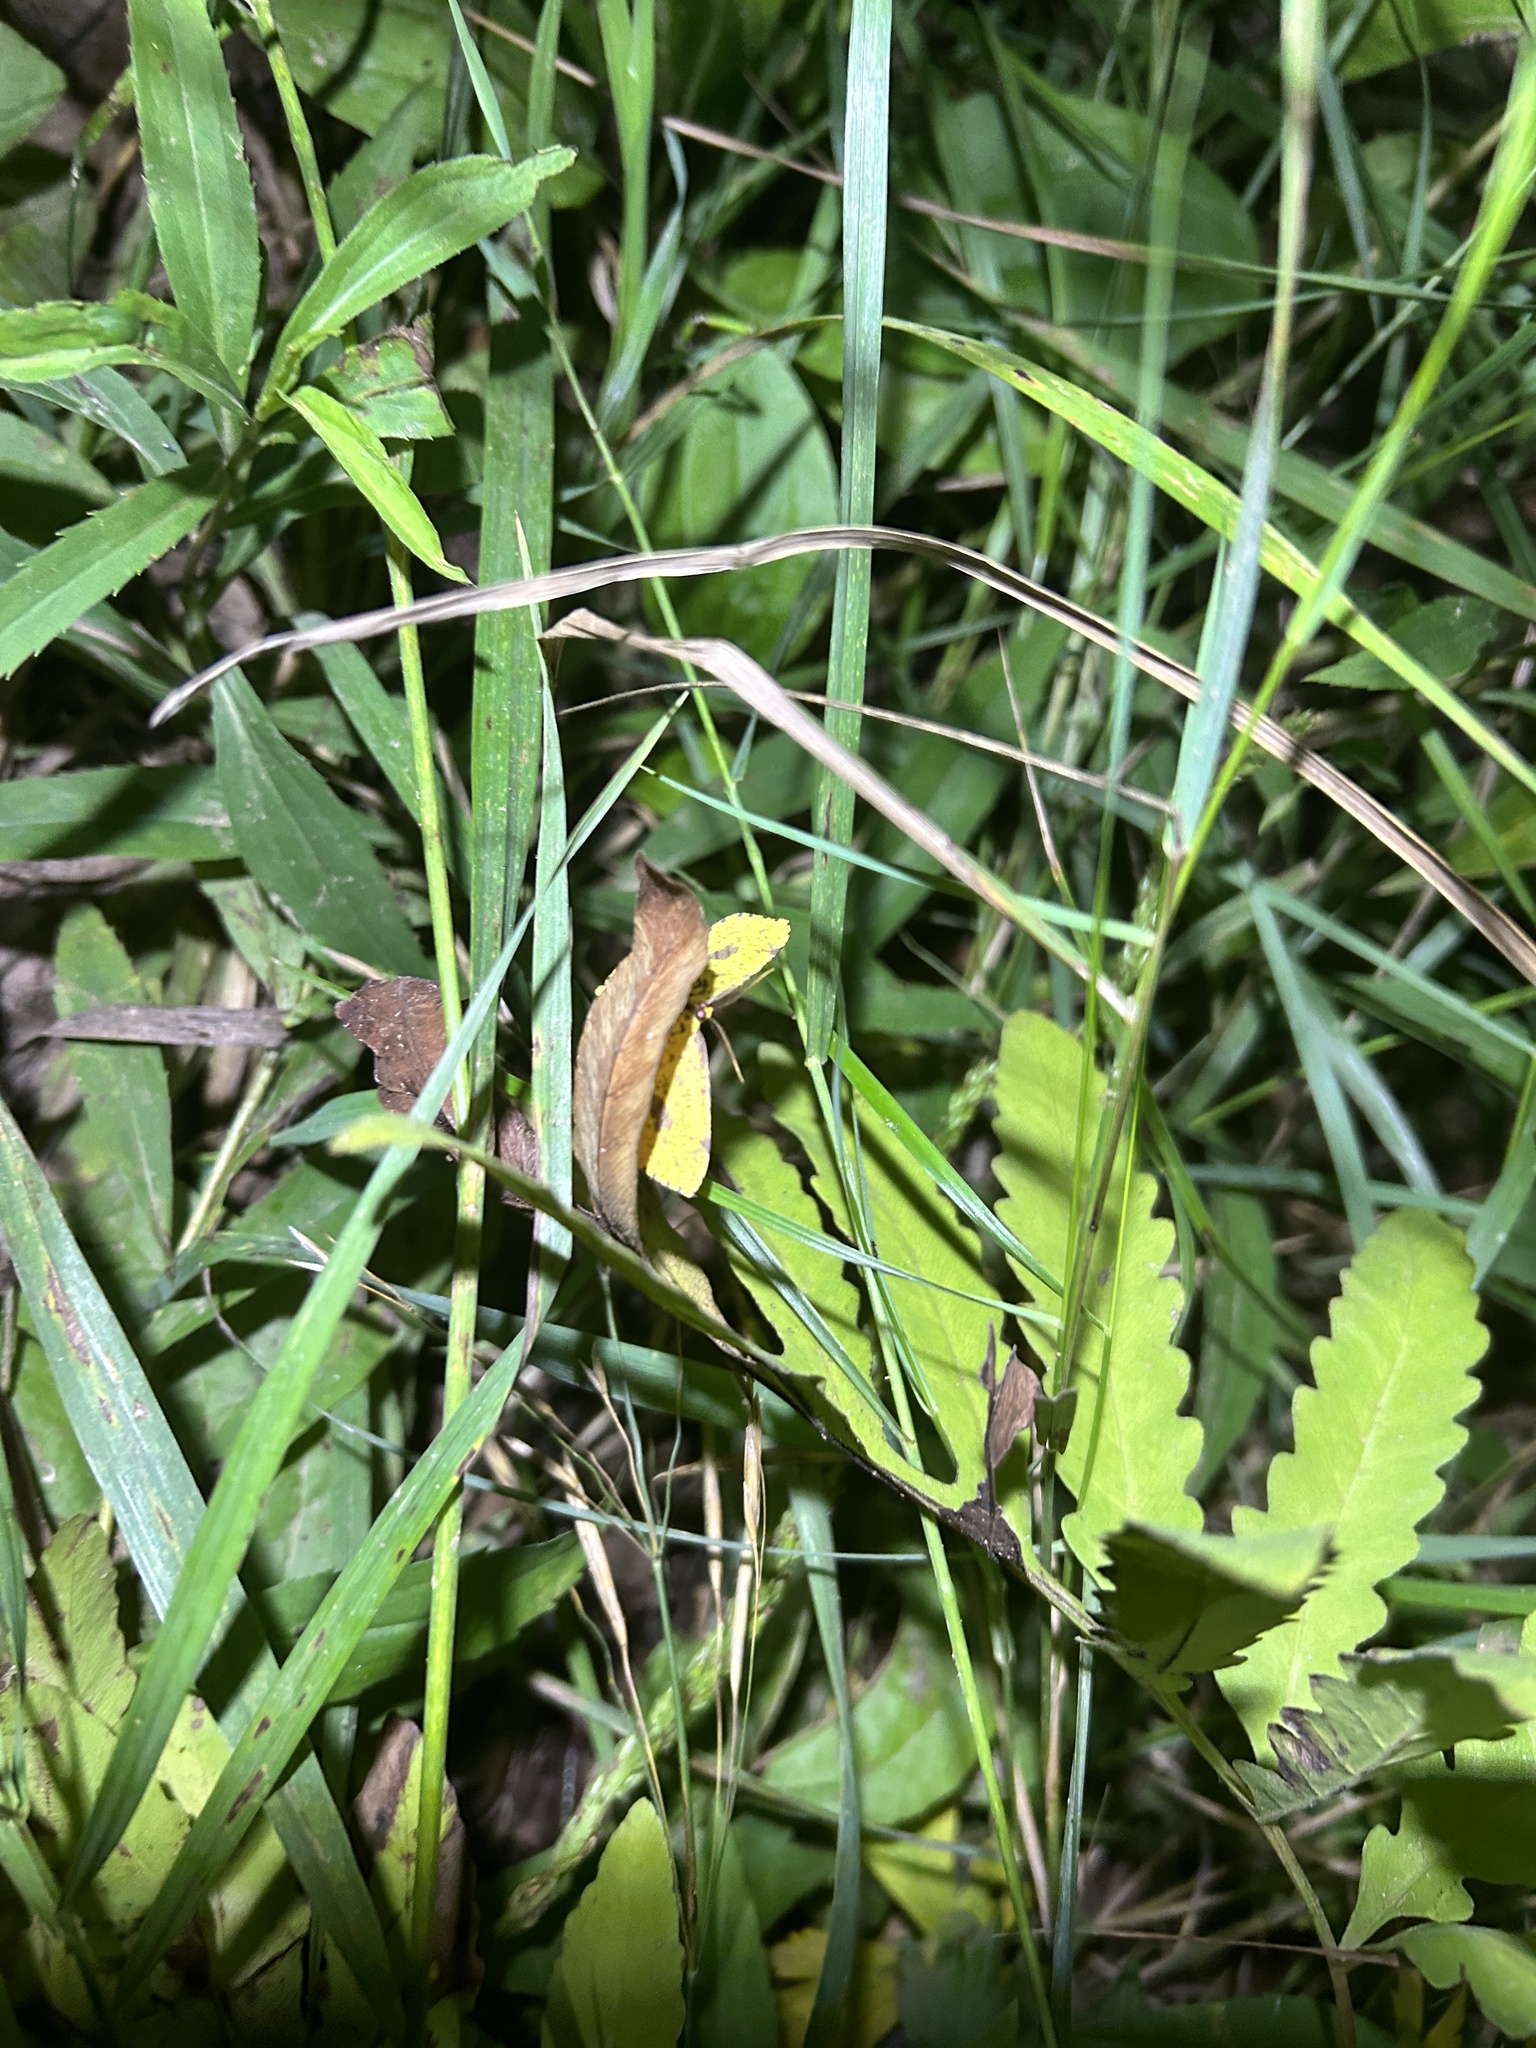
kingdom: Animalia
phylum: Arthropoda
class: Insecta
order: Lepidoptera
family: Geometridae
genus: Xanthotype
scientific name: Xanthotype
